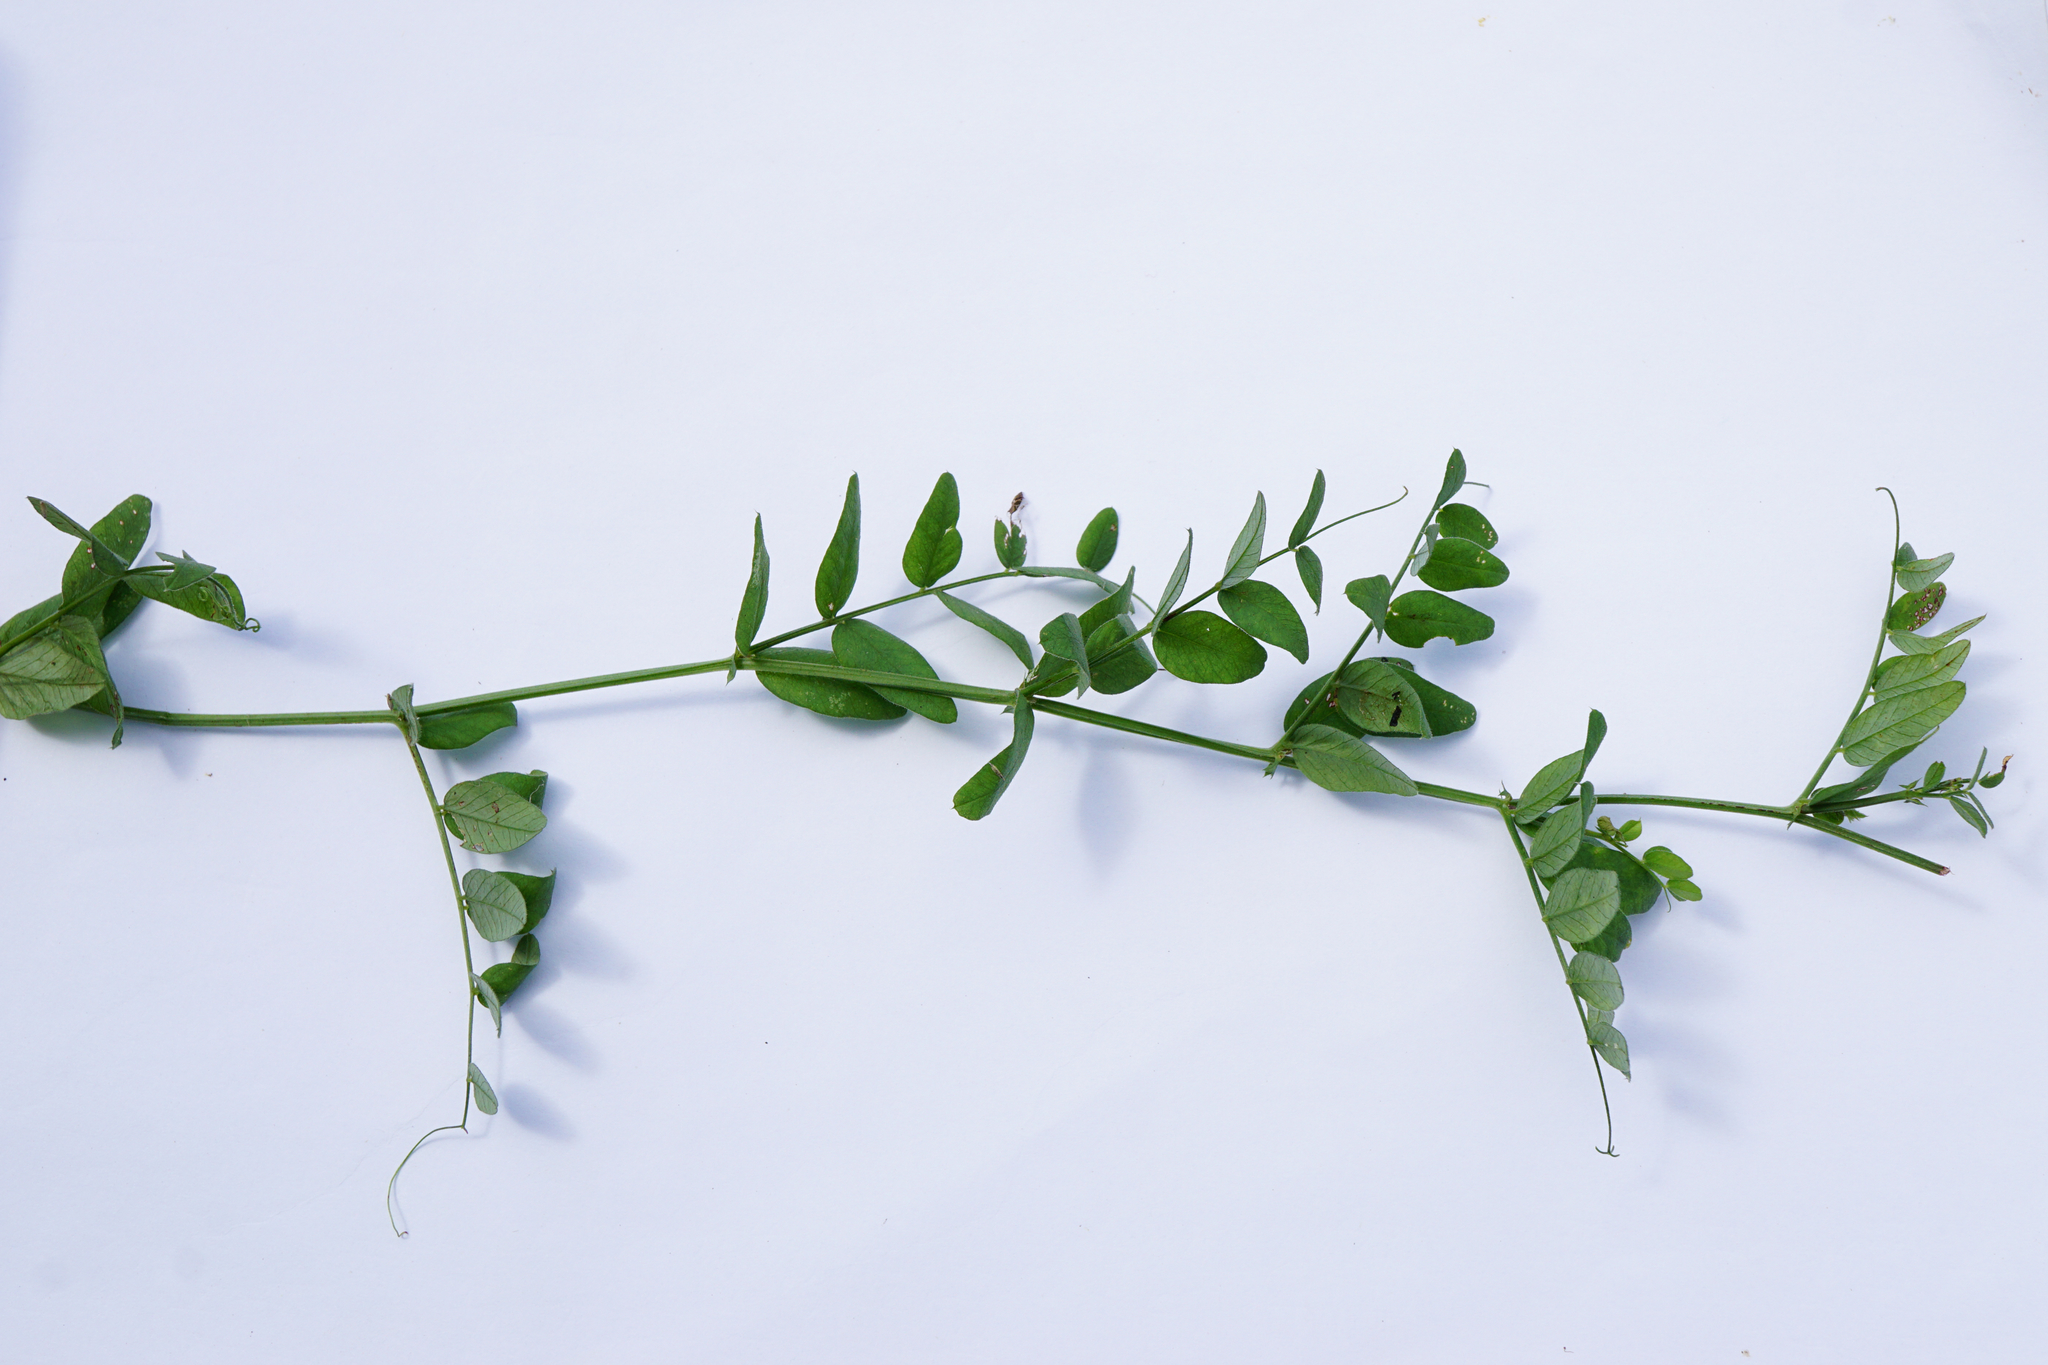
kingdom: Plantae
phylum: Tracheophyta
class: Magnoliopsida
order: Fabales
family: Fabaceae
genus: Vicia
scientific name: Vicia sepium
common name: Bush vetch
